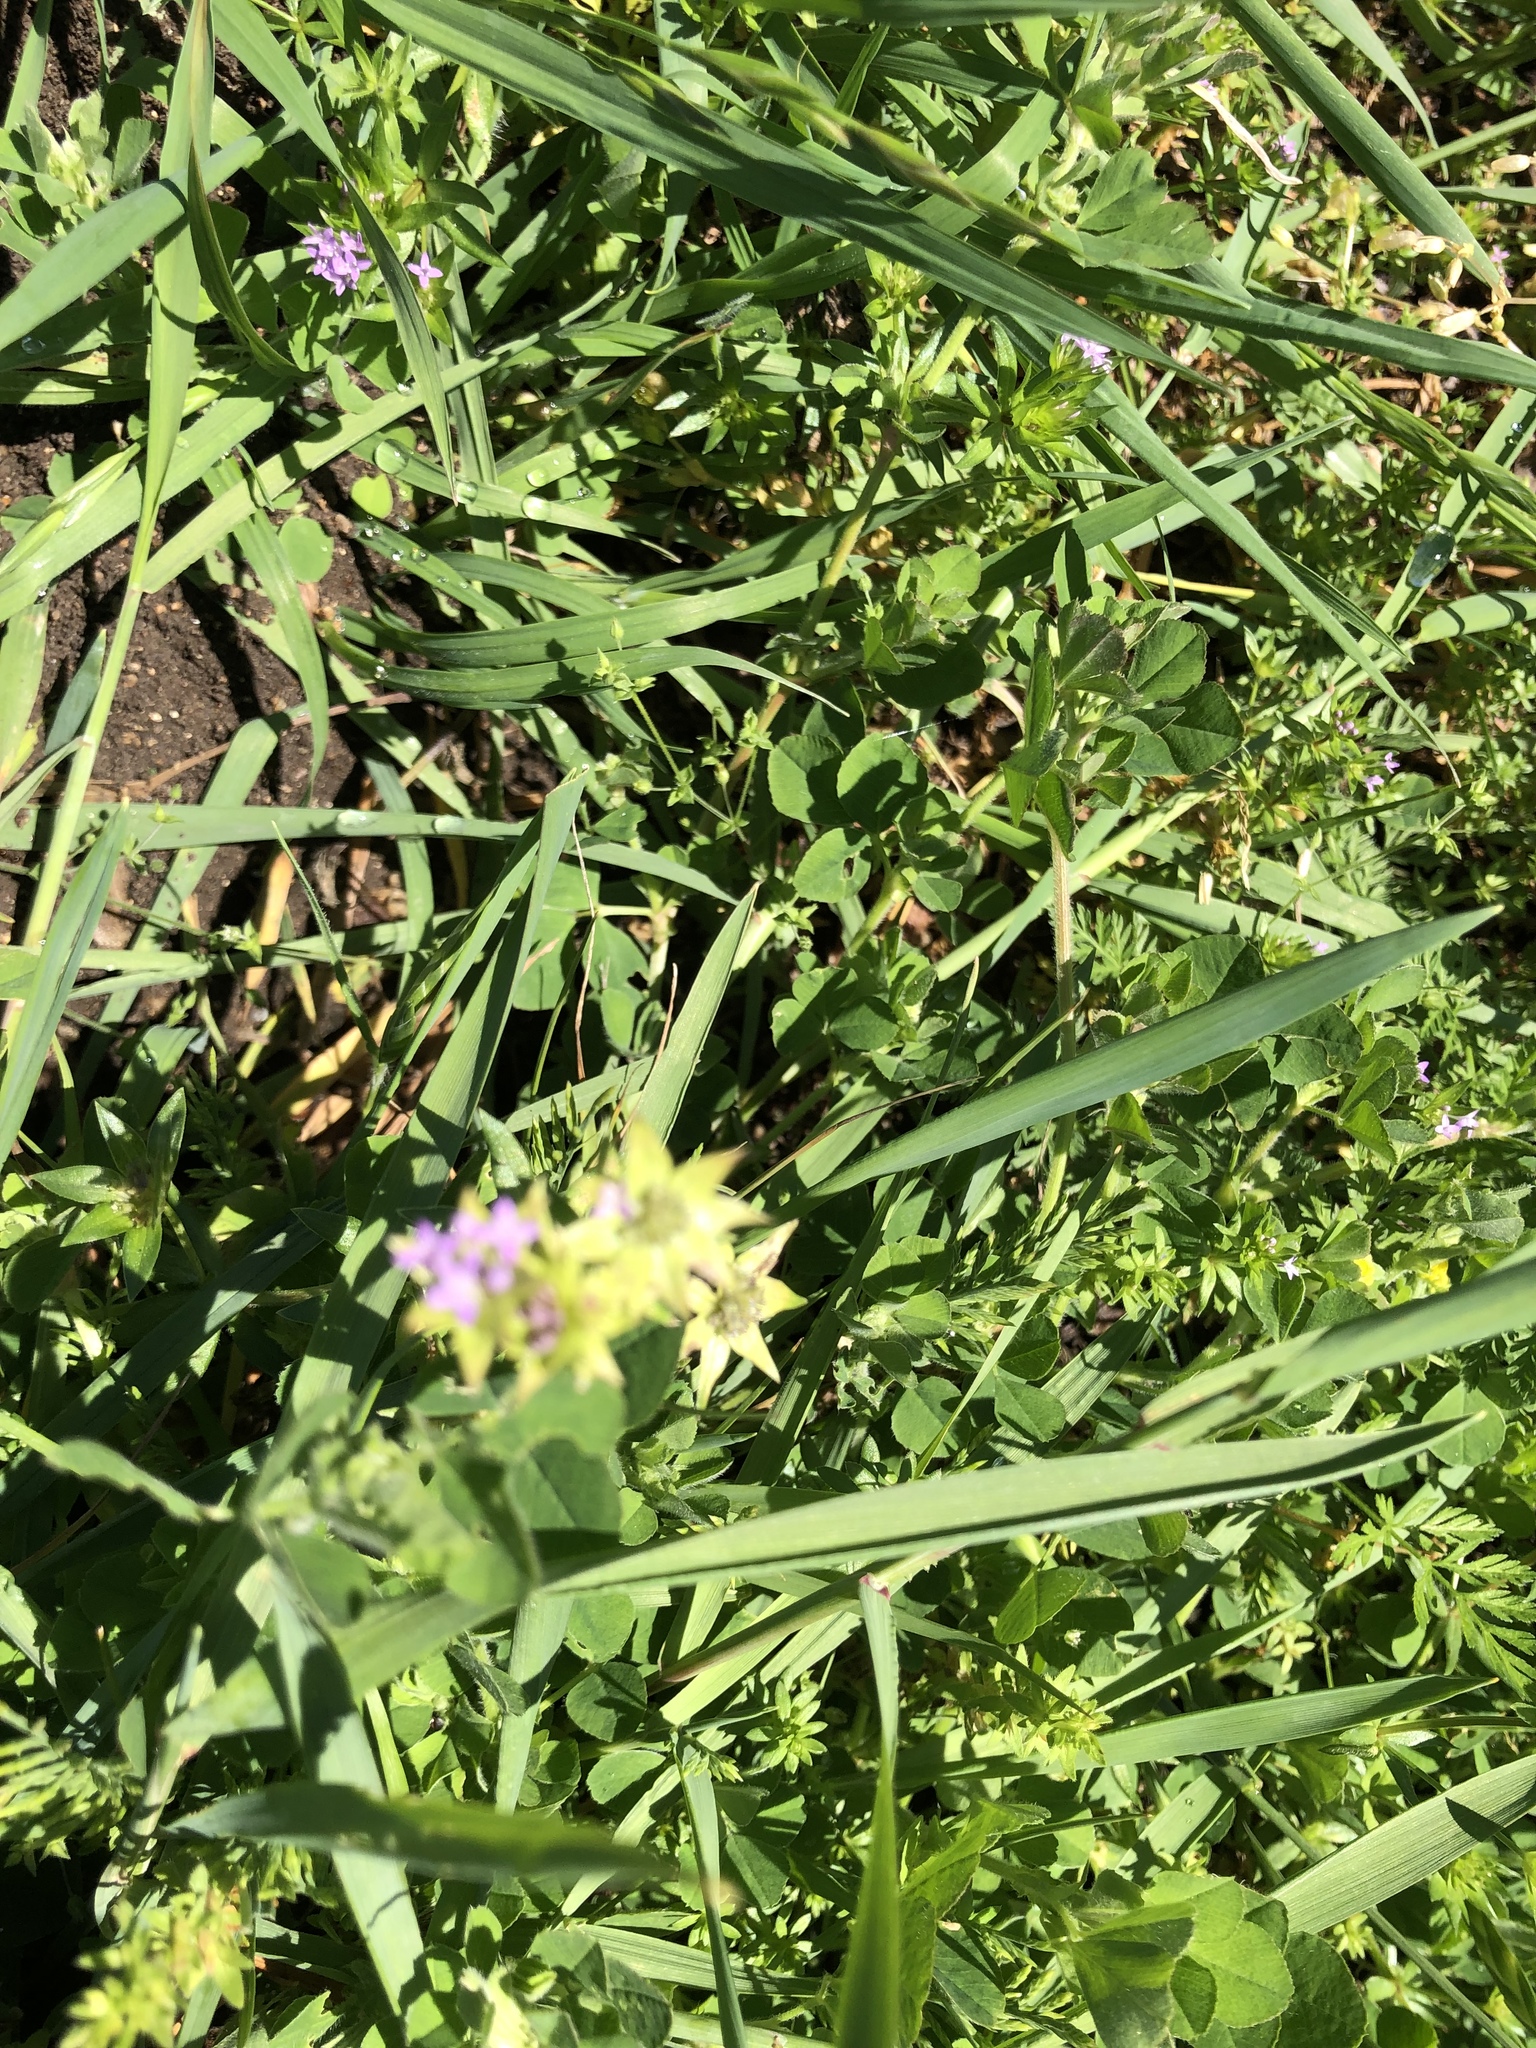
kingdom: Plantae
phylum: Tracheophyta
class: Magnoliopsida
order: Gentianales
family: Rubiaceae
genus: Sherardia
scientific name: Sherardia arvensis
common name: Field madder
